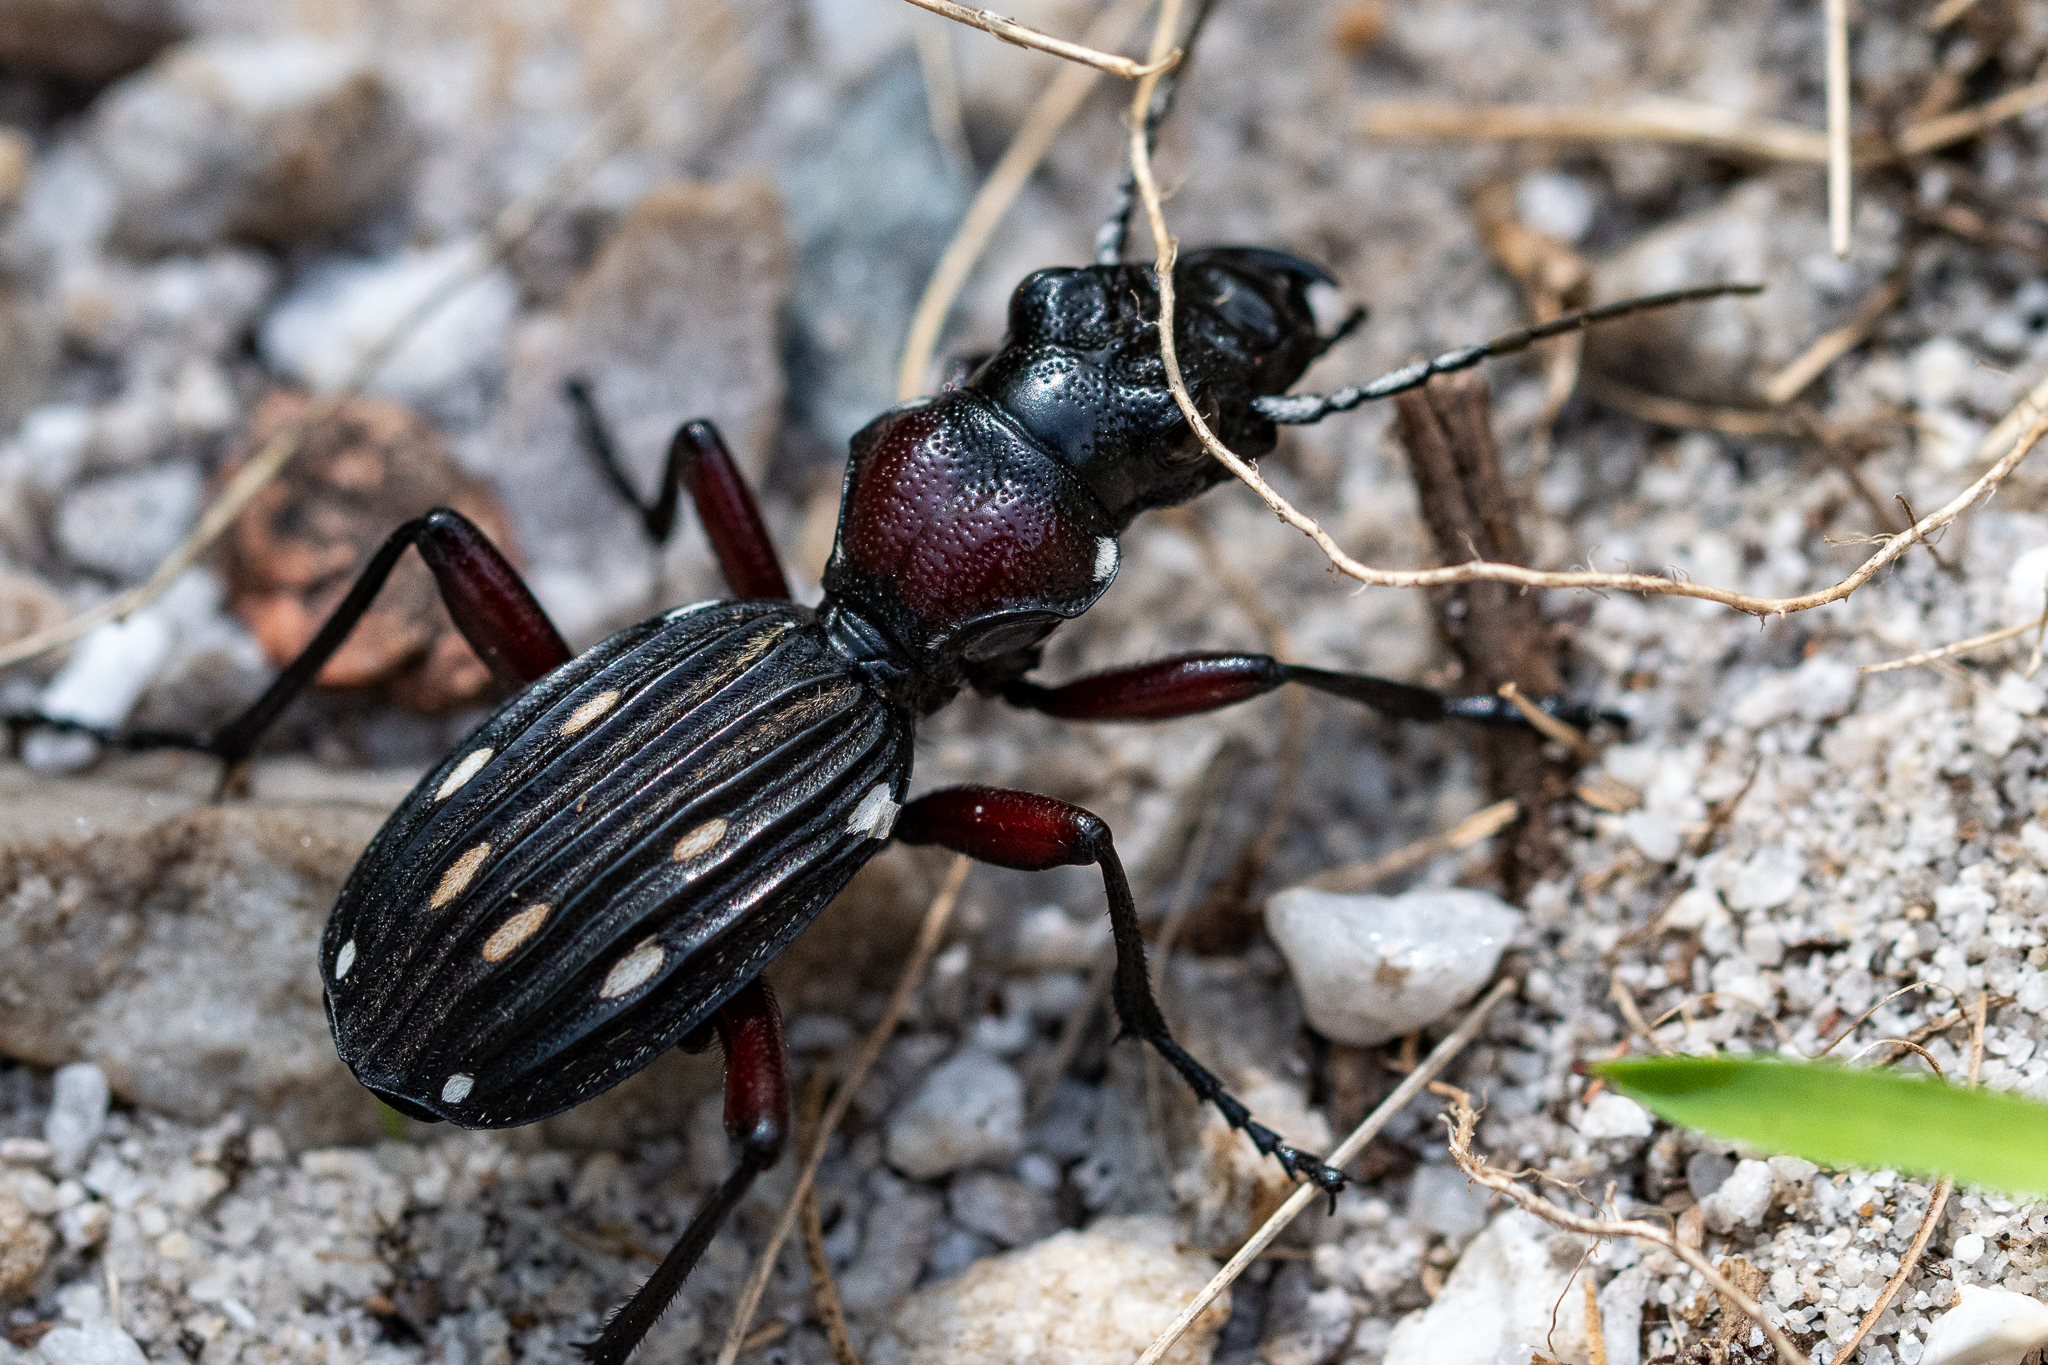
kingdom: Animalia
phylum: Arthropoda
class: Insecta
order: Coleoptera
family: Carabidae
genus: Anthia
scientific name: Anthia decemguttata
